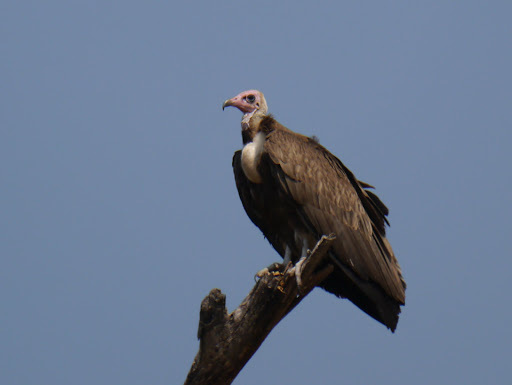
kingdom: Animalia
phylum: Chordata
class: Aves
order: Accipitriformes
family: Accipitridae
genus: Necrosyrtes
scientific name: Necrosyrtes monachus
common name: Hooded vulture
